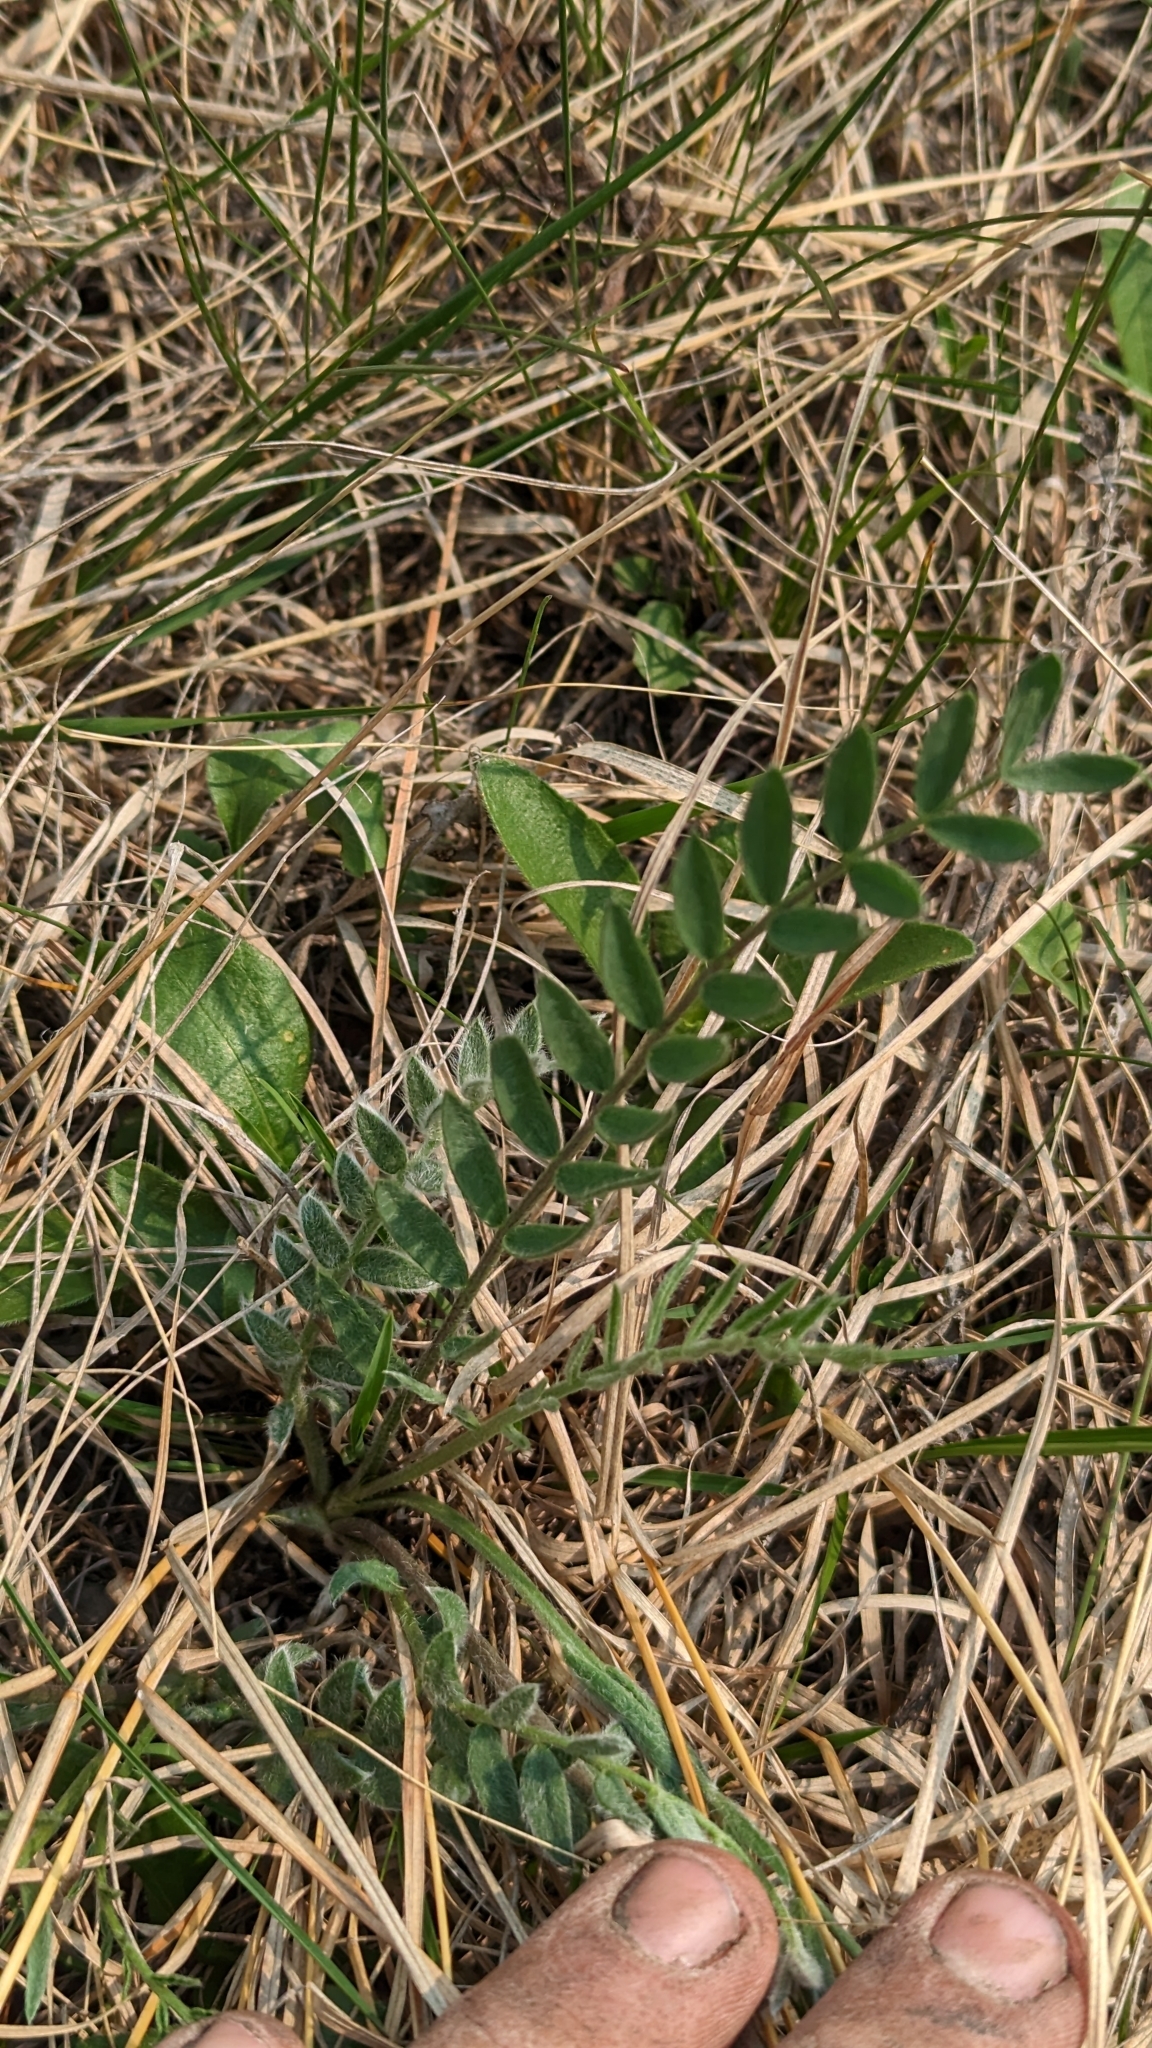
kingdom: Plantae
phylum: Tracheophyta
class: Magnoliopsida
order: Santalales
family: Comandraceae
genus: Comandra
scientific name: Comandra umbellata
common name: Bastard toadflax
